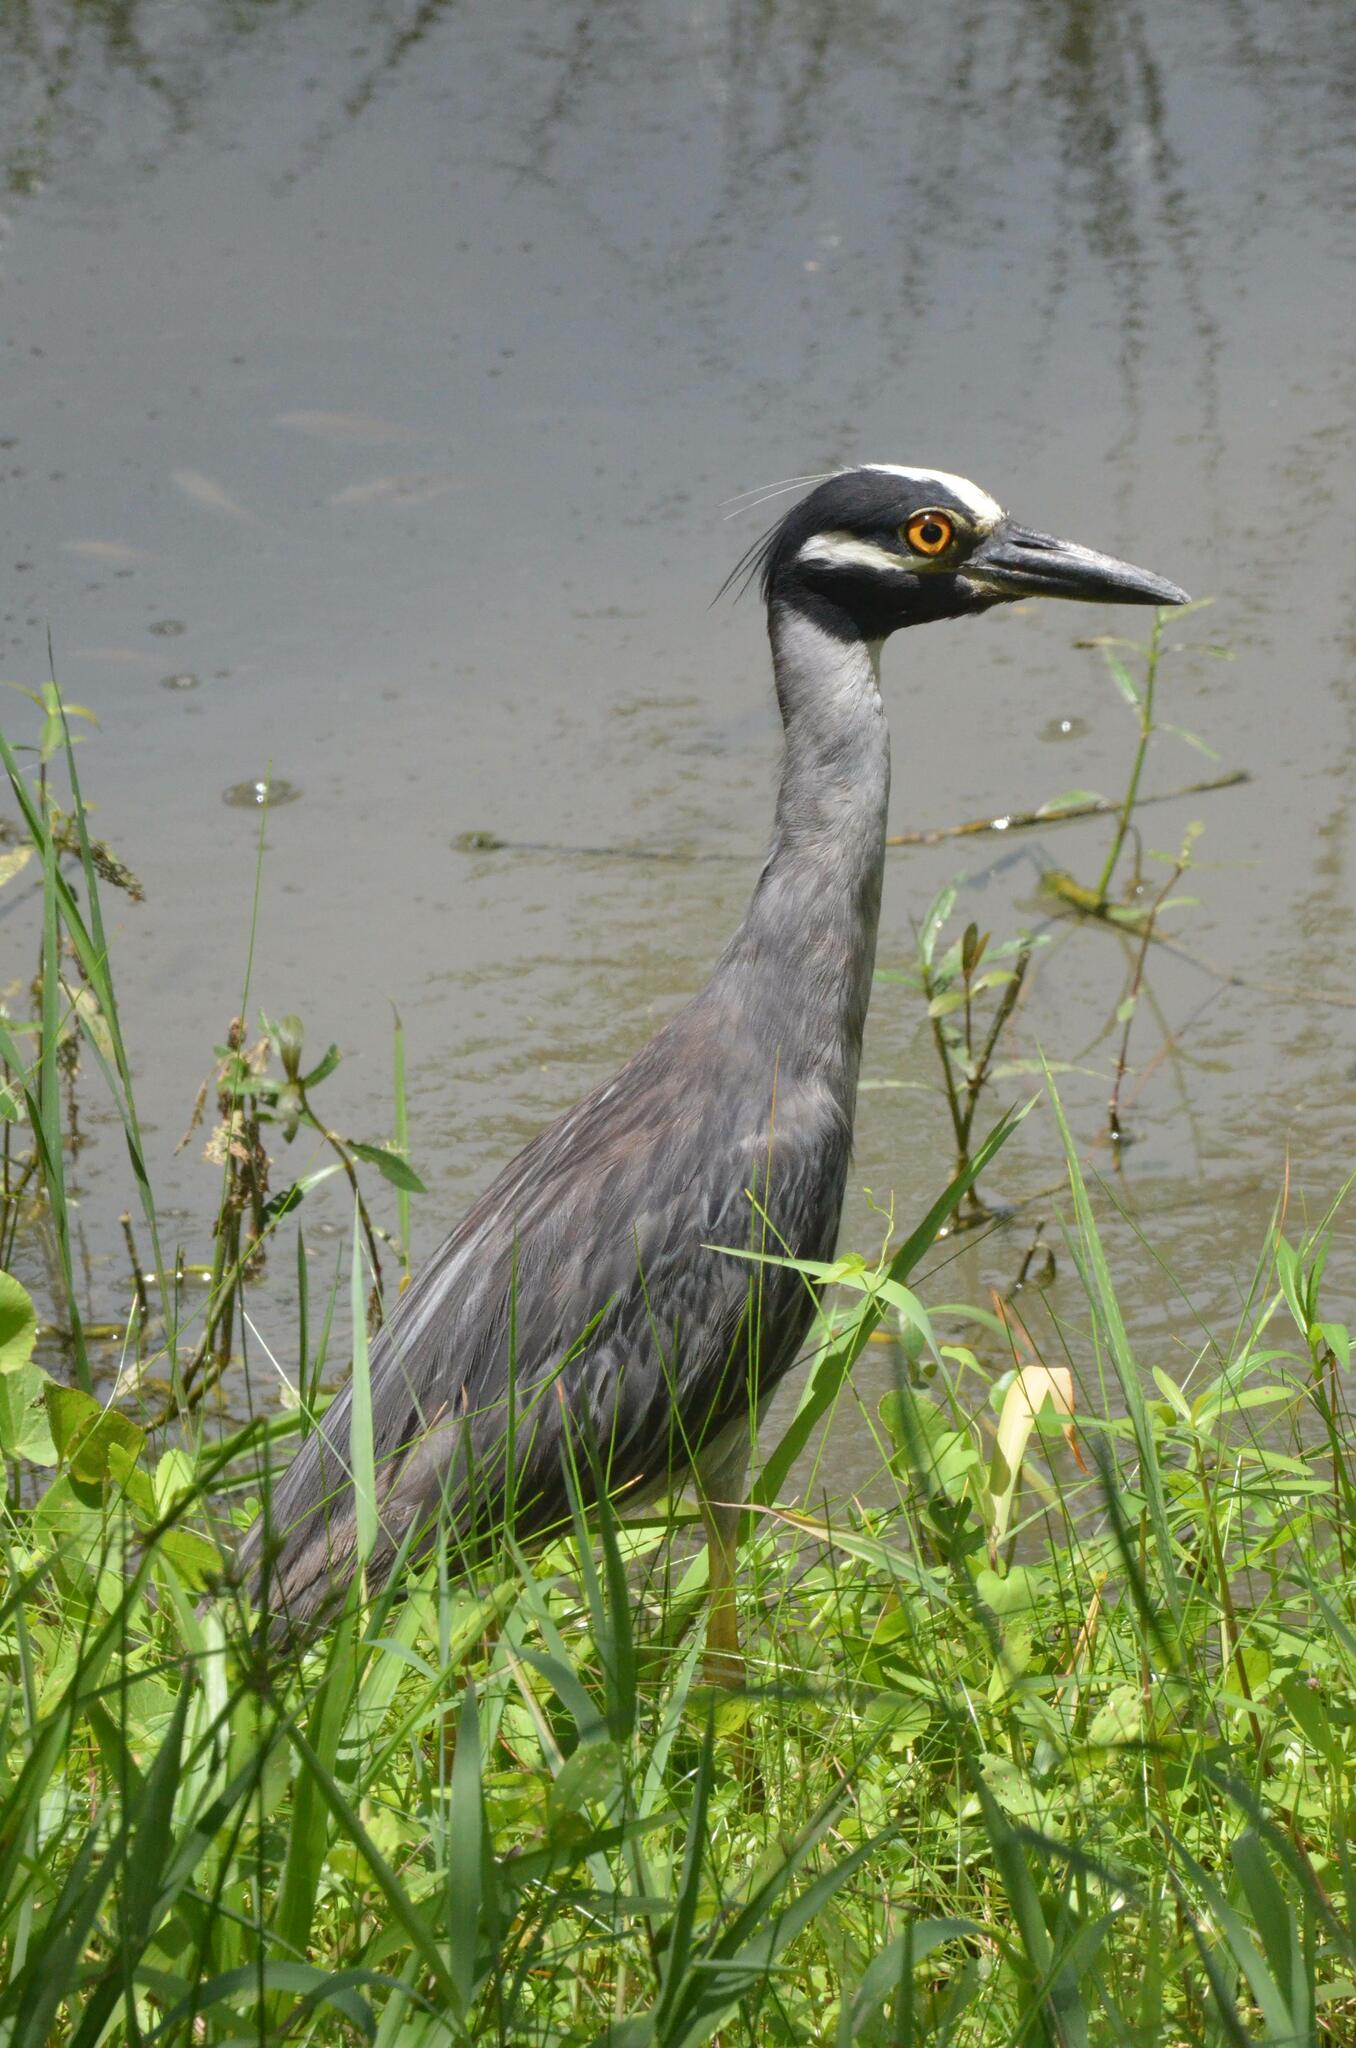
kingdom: Animalia
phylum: Chordata
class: Aves
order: Pelecaniformes
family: Ardeidae
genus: Nyctanassa
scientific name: Nyctanassa violacea
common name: Yellow-crowned night heron
